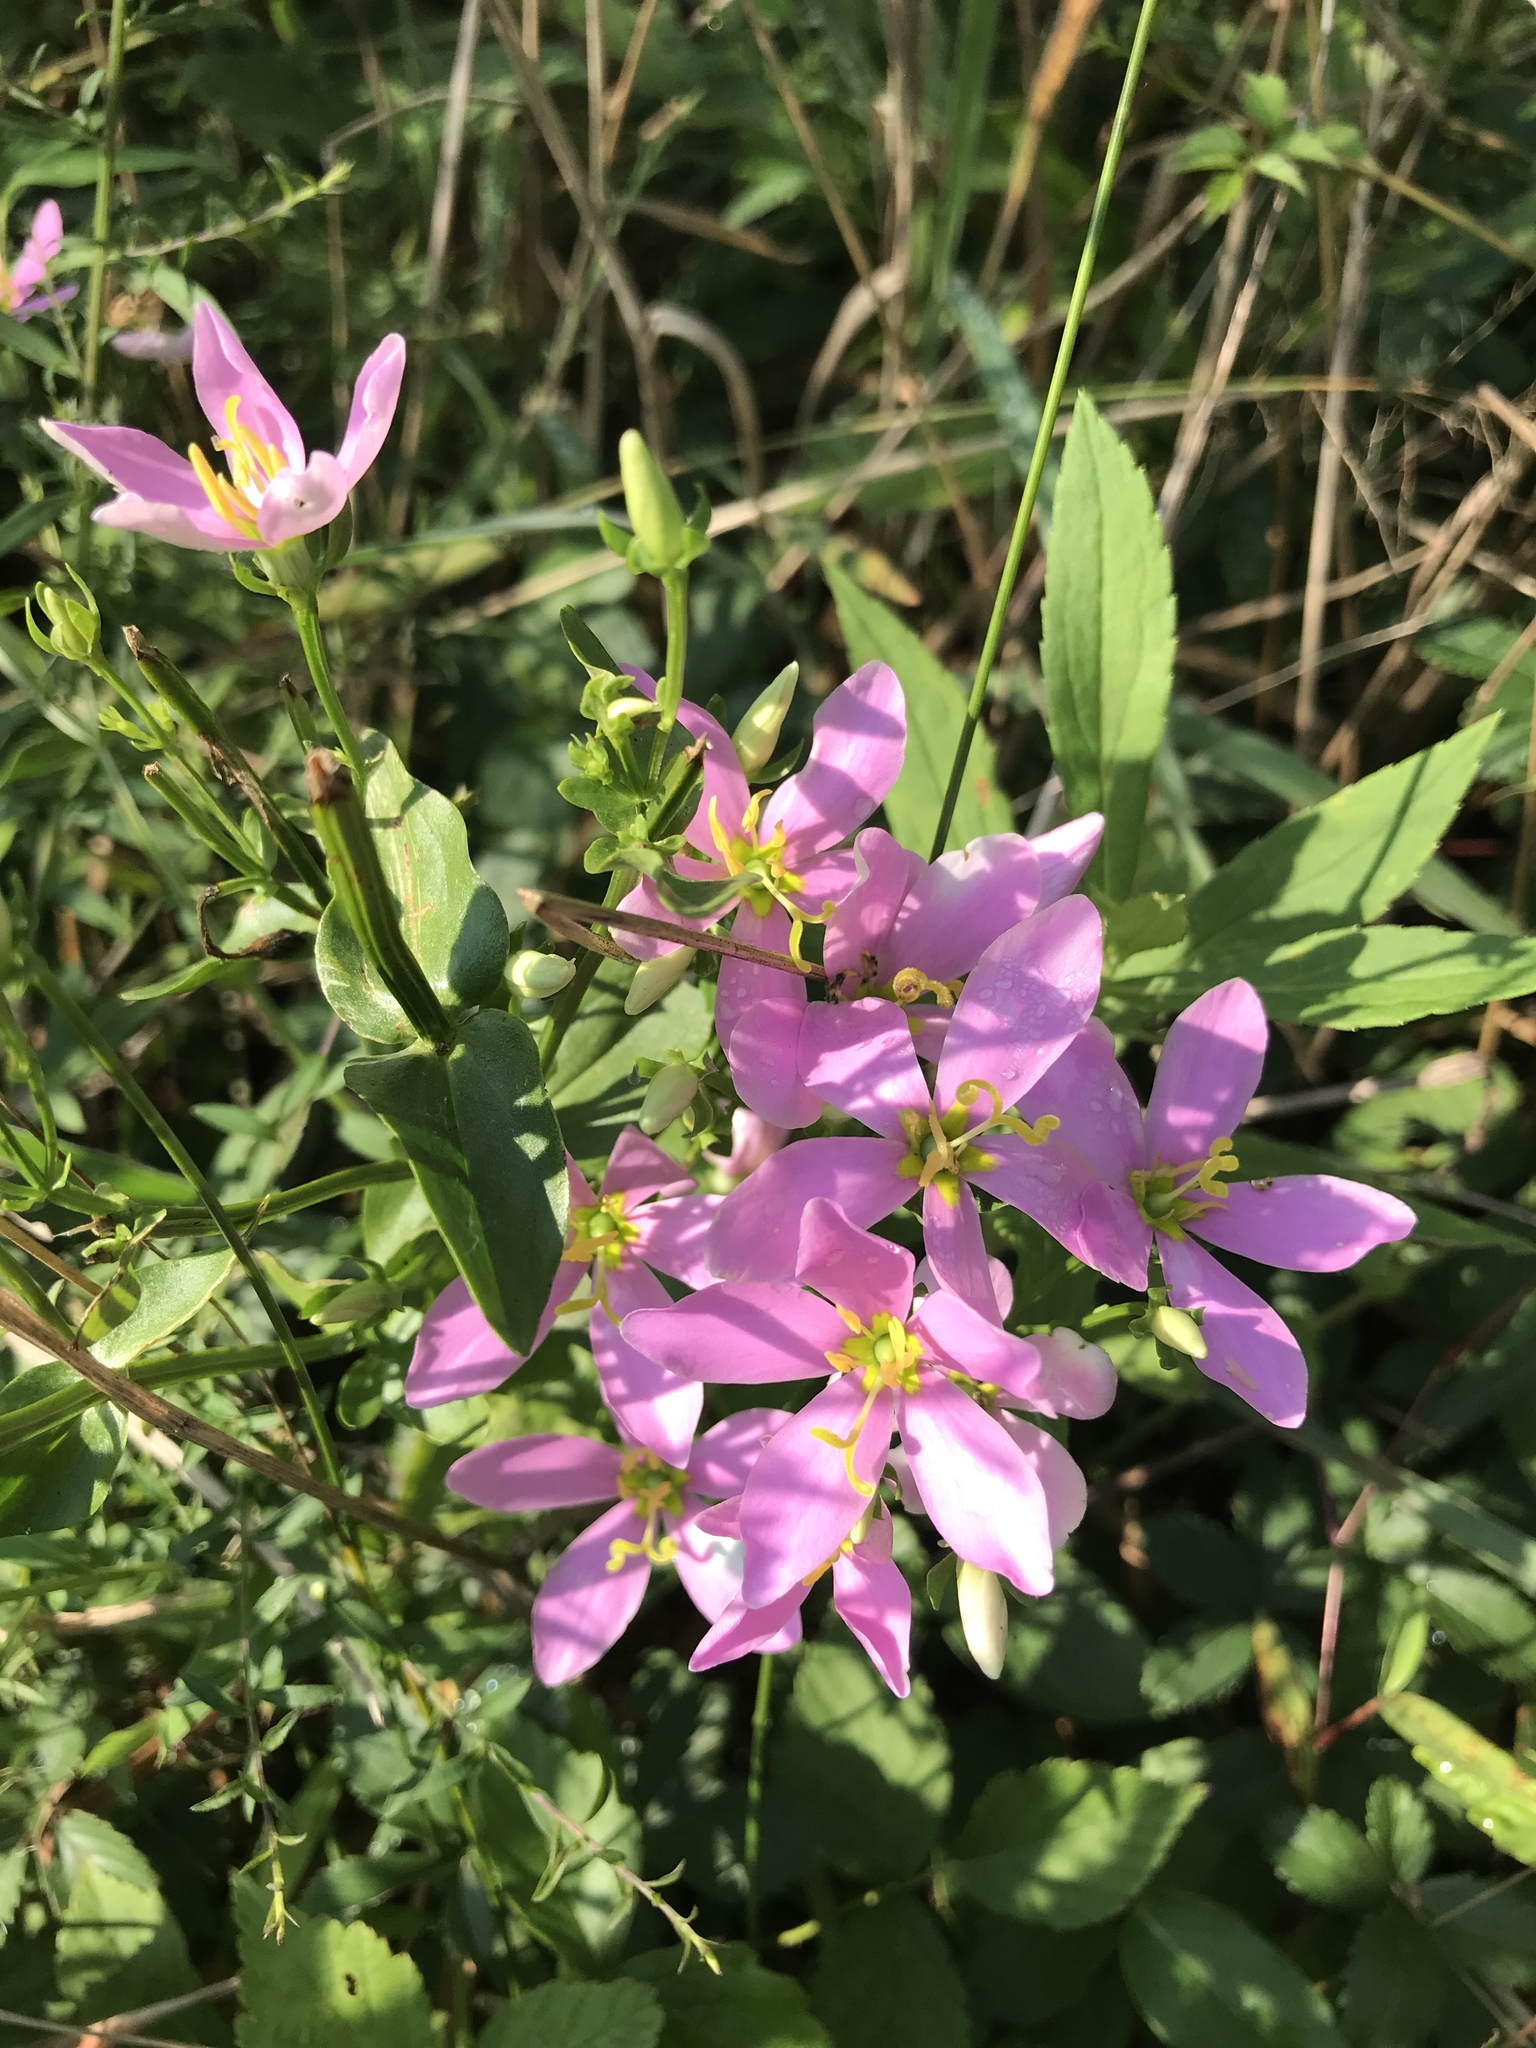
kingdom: Plantae
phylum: Tracheophyta
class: Magnoliopsida
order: Gentianales
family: Gentianaceae
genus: Sabatia
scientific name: Sabatia angularis
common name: Rose-pink
